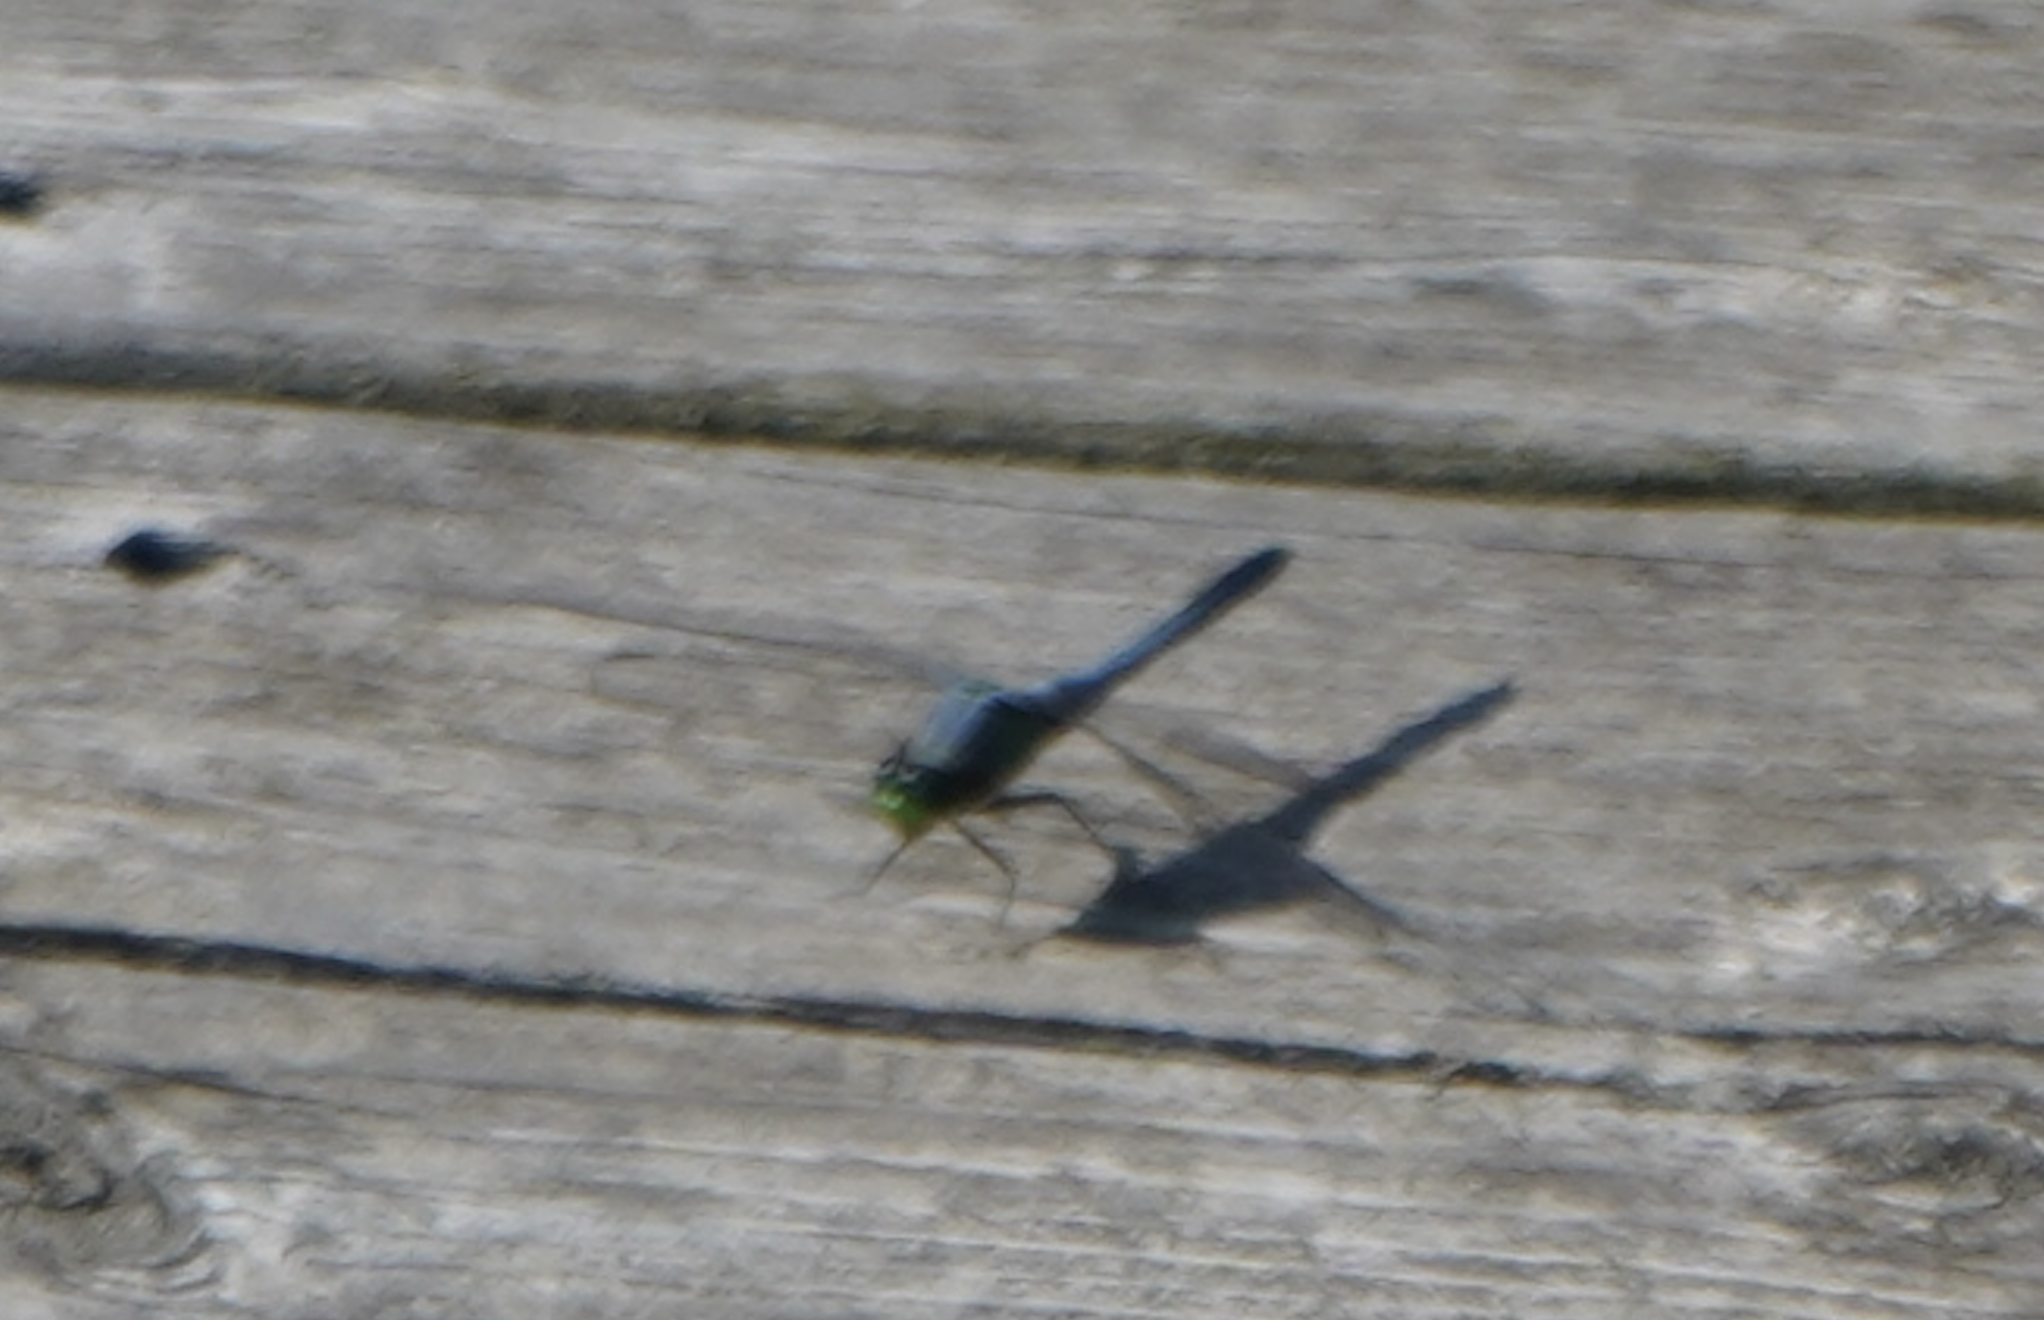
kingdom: Animalia
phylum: Arthropoda
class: Insecta
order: Odonata
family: Libellulidae
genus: Erythemis
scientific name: Erythemis simplicicollis
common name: Eastern pondhawk
